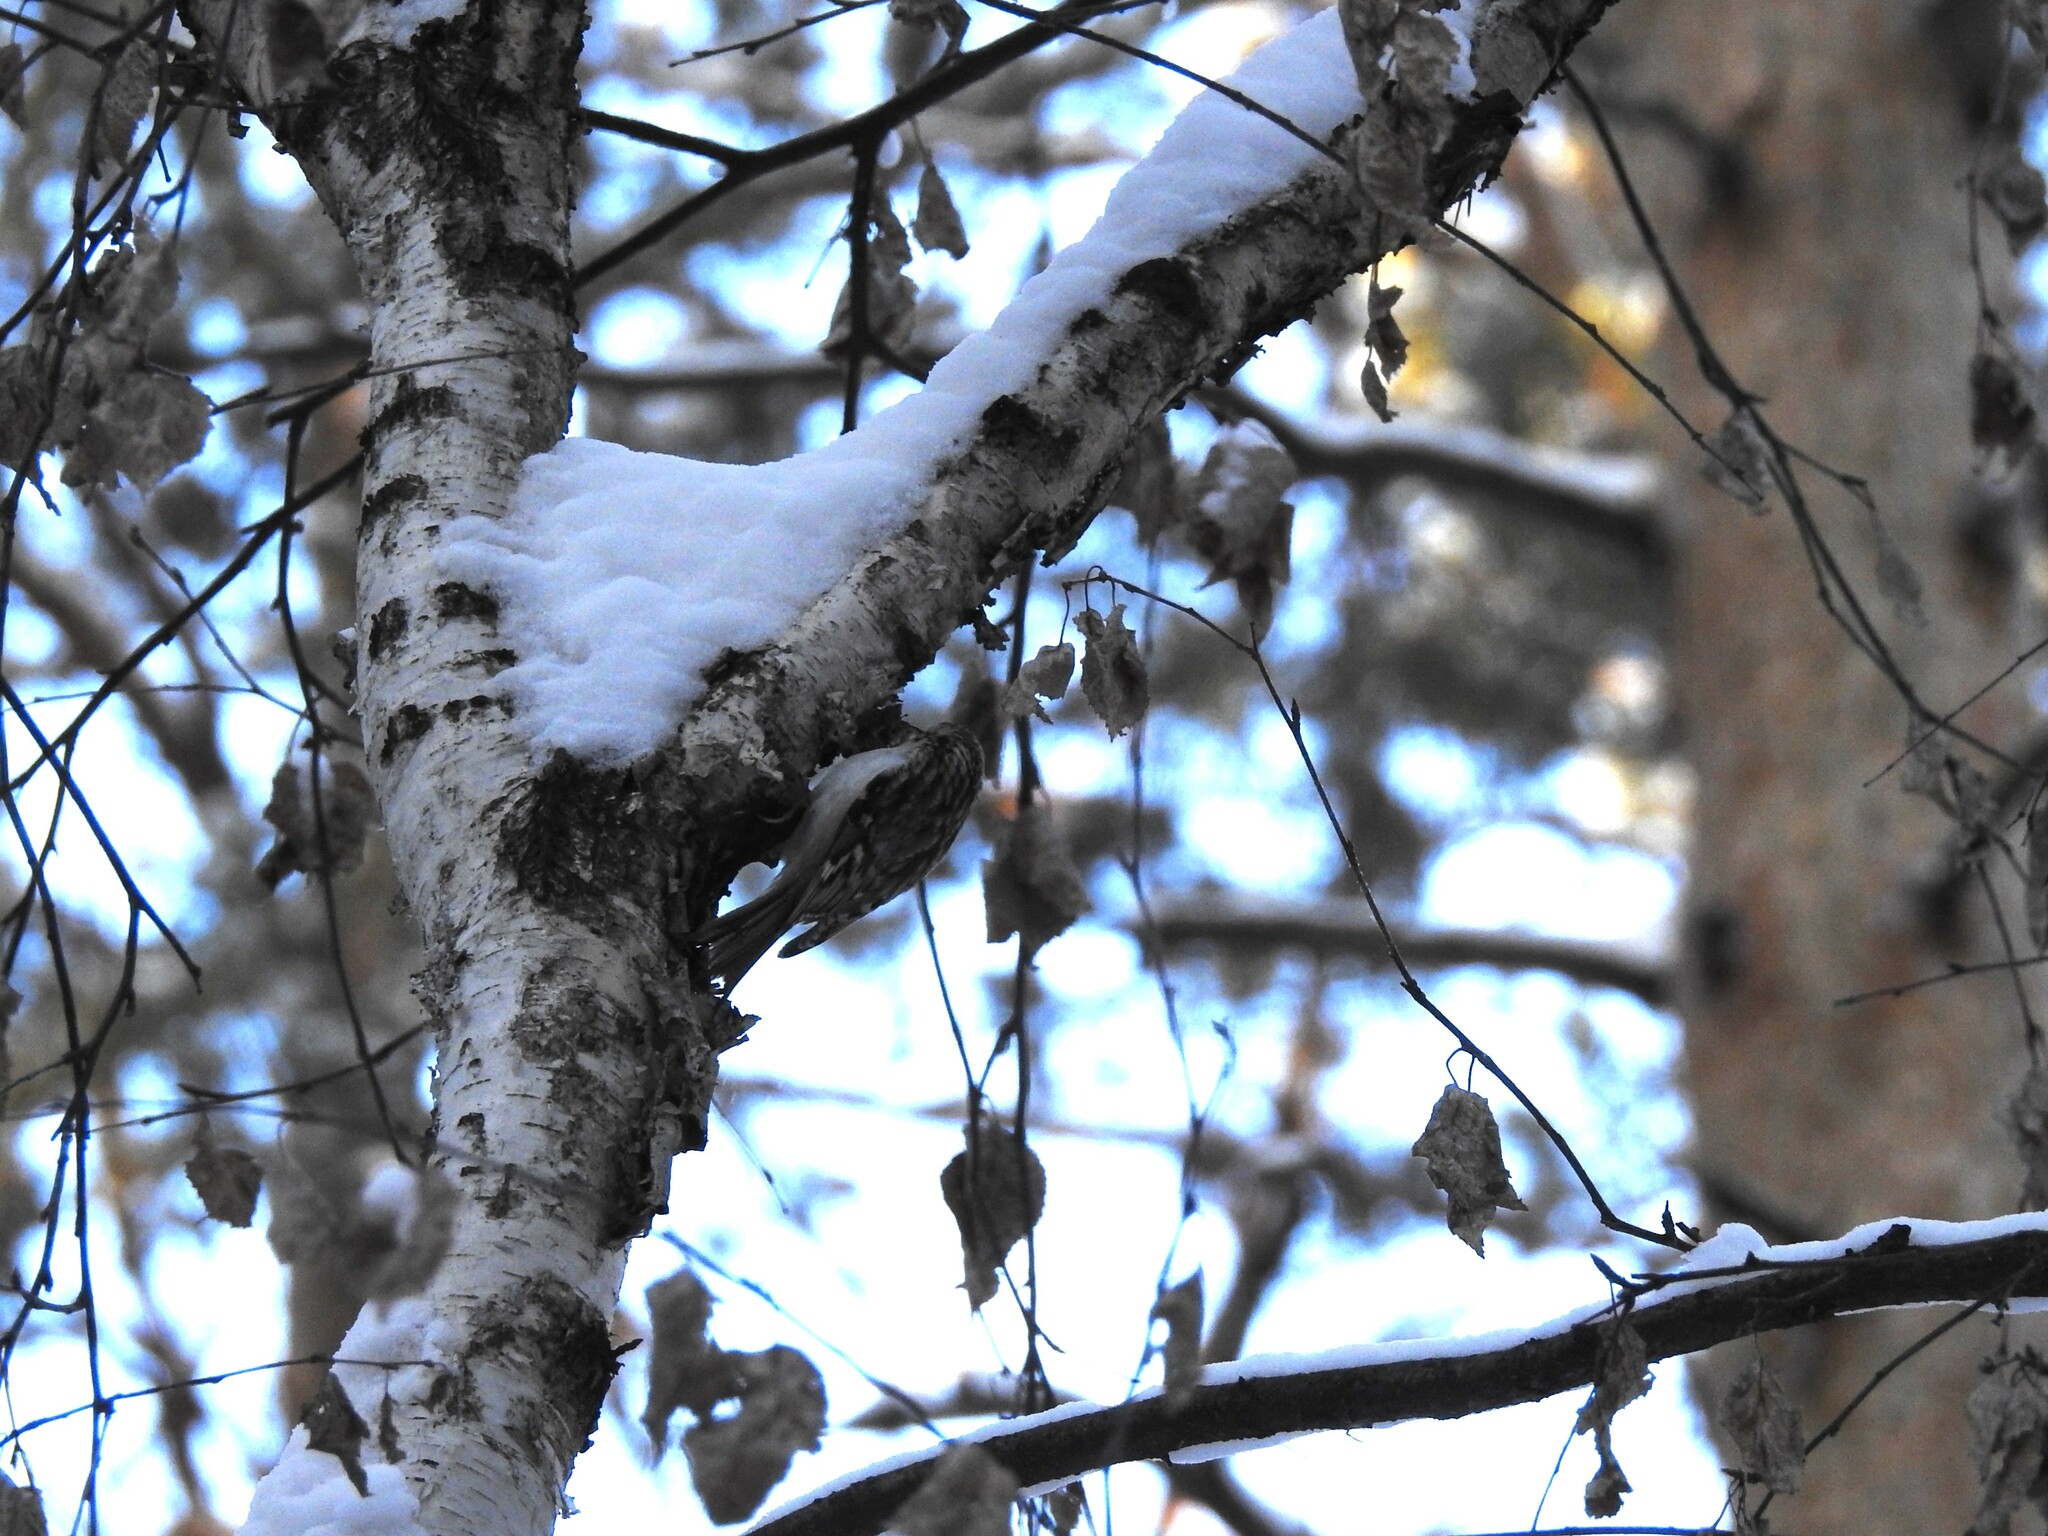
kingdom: Animalia
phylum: Chordata
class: Aves
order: Passeriformes
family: Certhiidae
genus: Certhia
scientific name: Certhia familiaris
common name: Eurasian treecreeper
